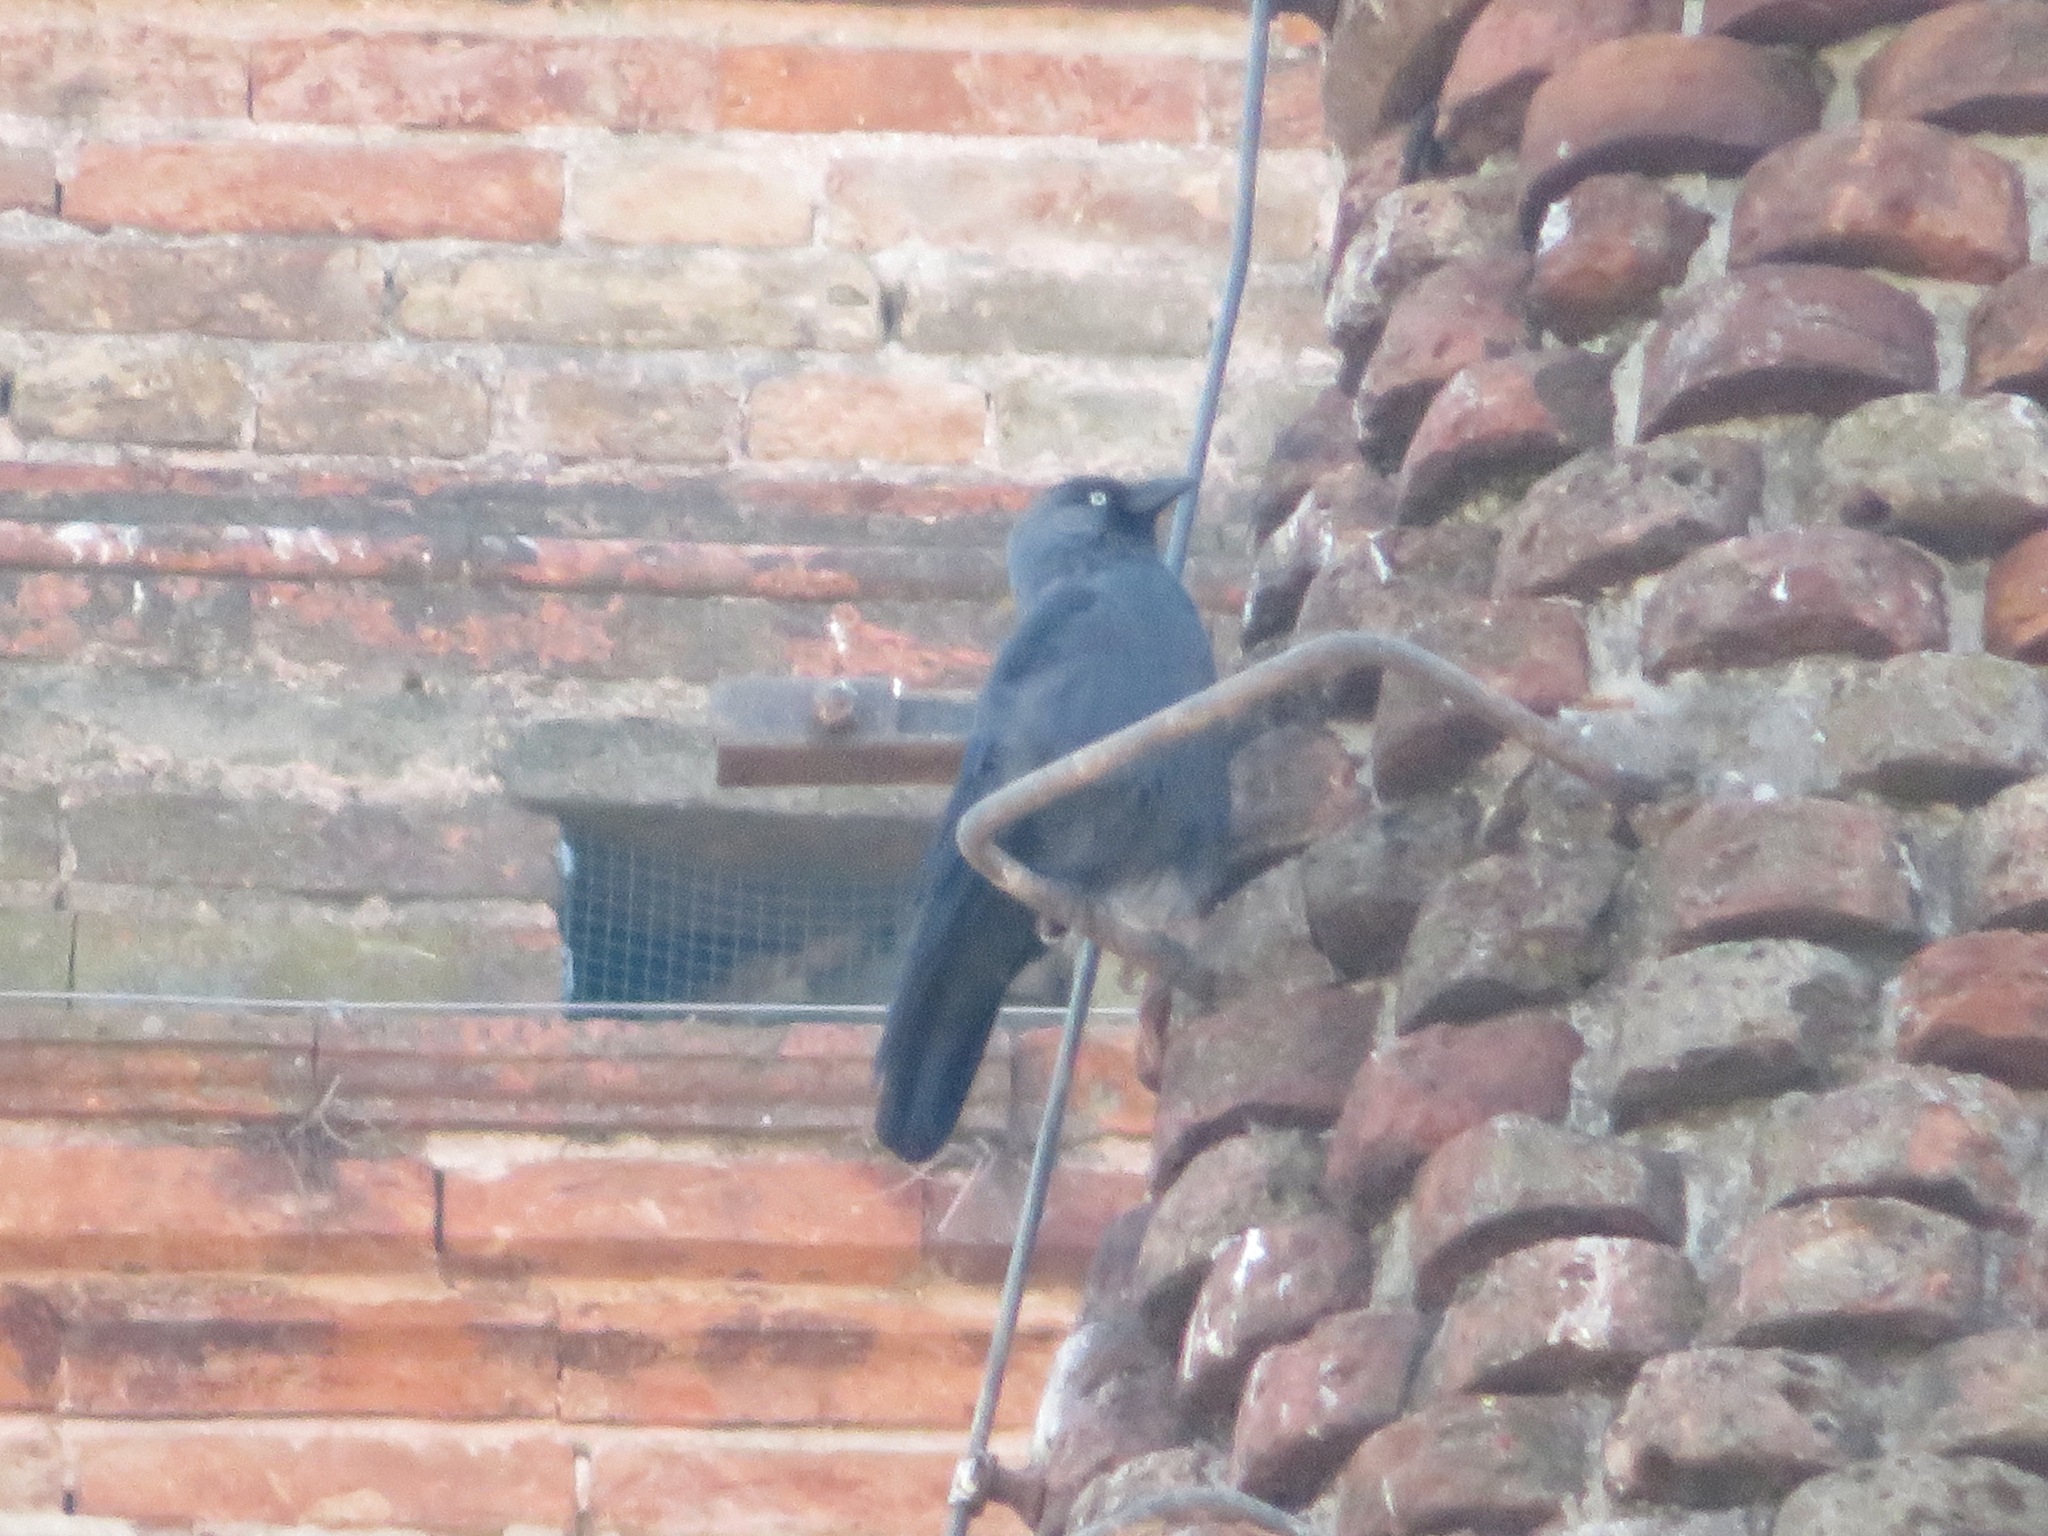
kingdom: Animalia
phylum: Chordata
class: Aves
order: Passeriformes
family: Corvidae
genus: Coloeus
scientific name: Coloeus monedula
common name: Western jackdaw
